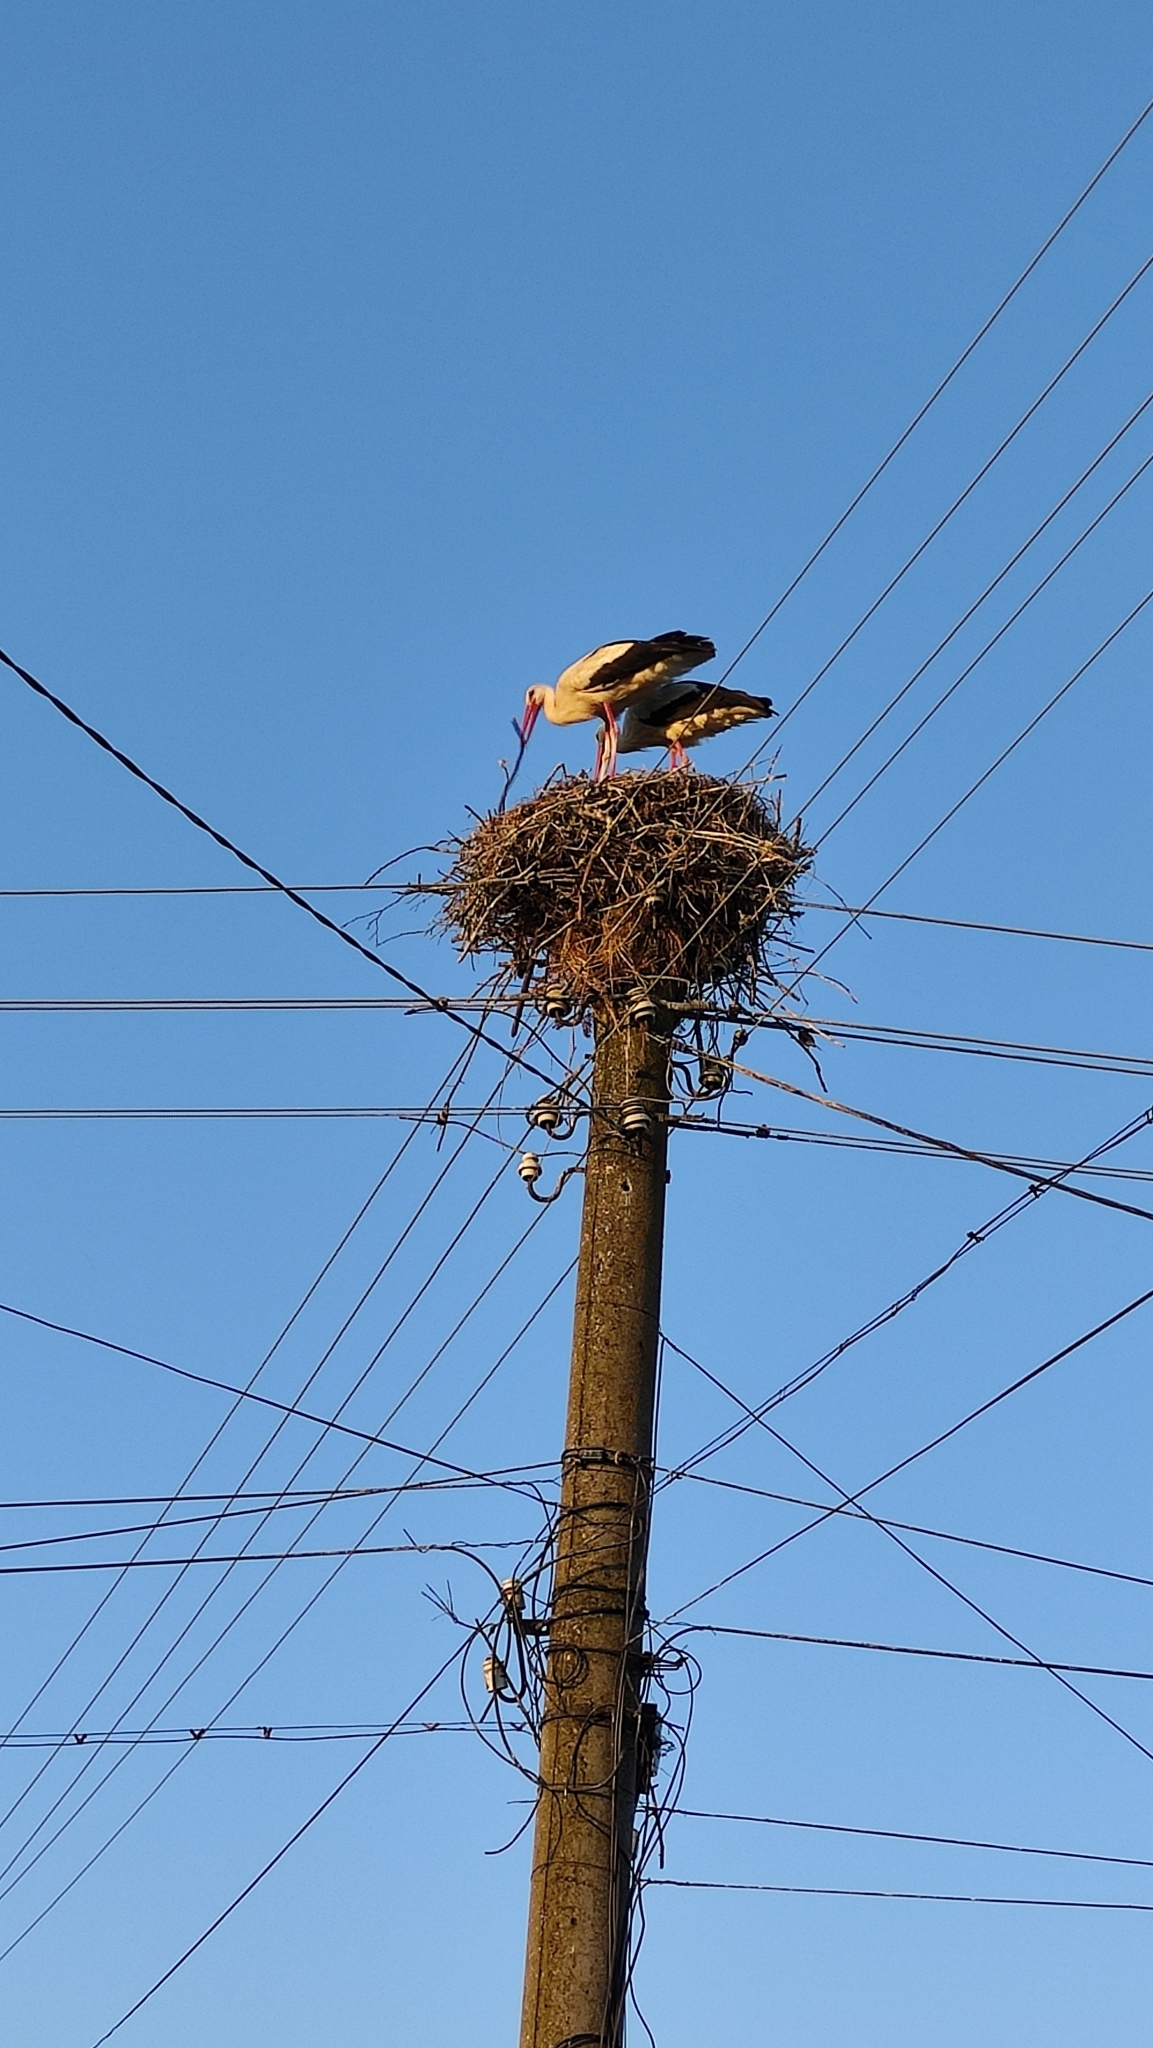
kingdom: Animalia
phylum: Chordata
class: Aves
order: Ciconiiformes
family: Ciconiidae
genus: Ciconia
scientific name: Ciconia ciconia
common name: White stork
